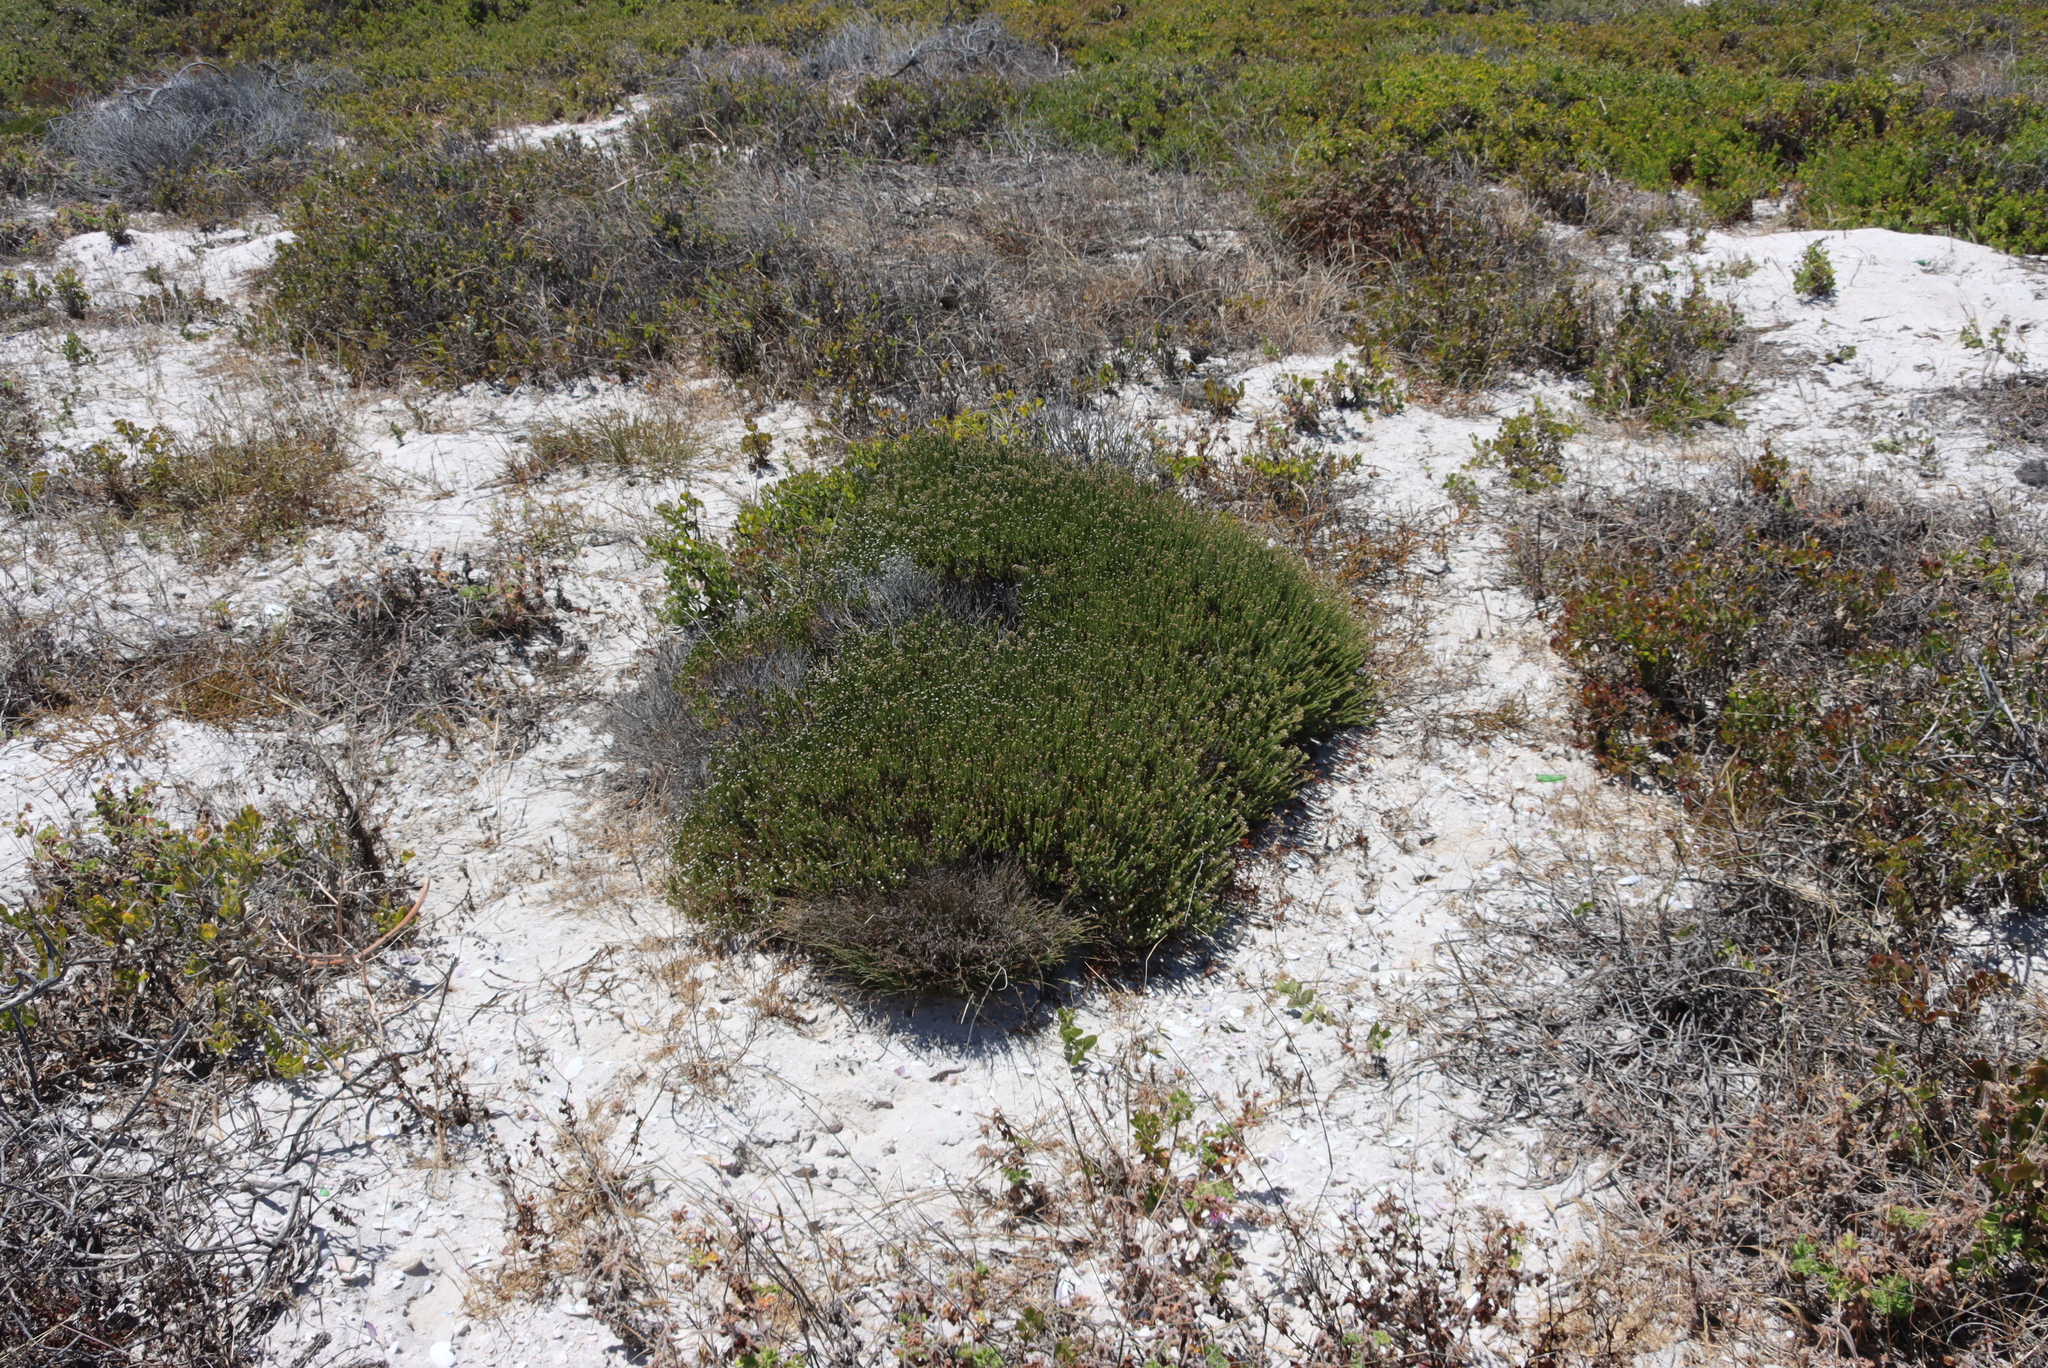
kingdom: Plantae
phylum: Tracheophyta
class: Magnoliopsida
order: Rosales
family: Rhamnaceae
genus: Phylica
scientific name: Phylica ericoides
